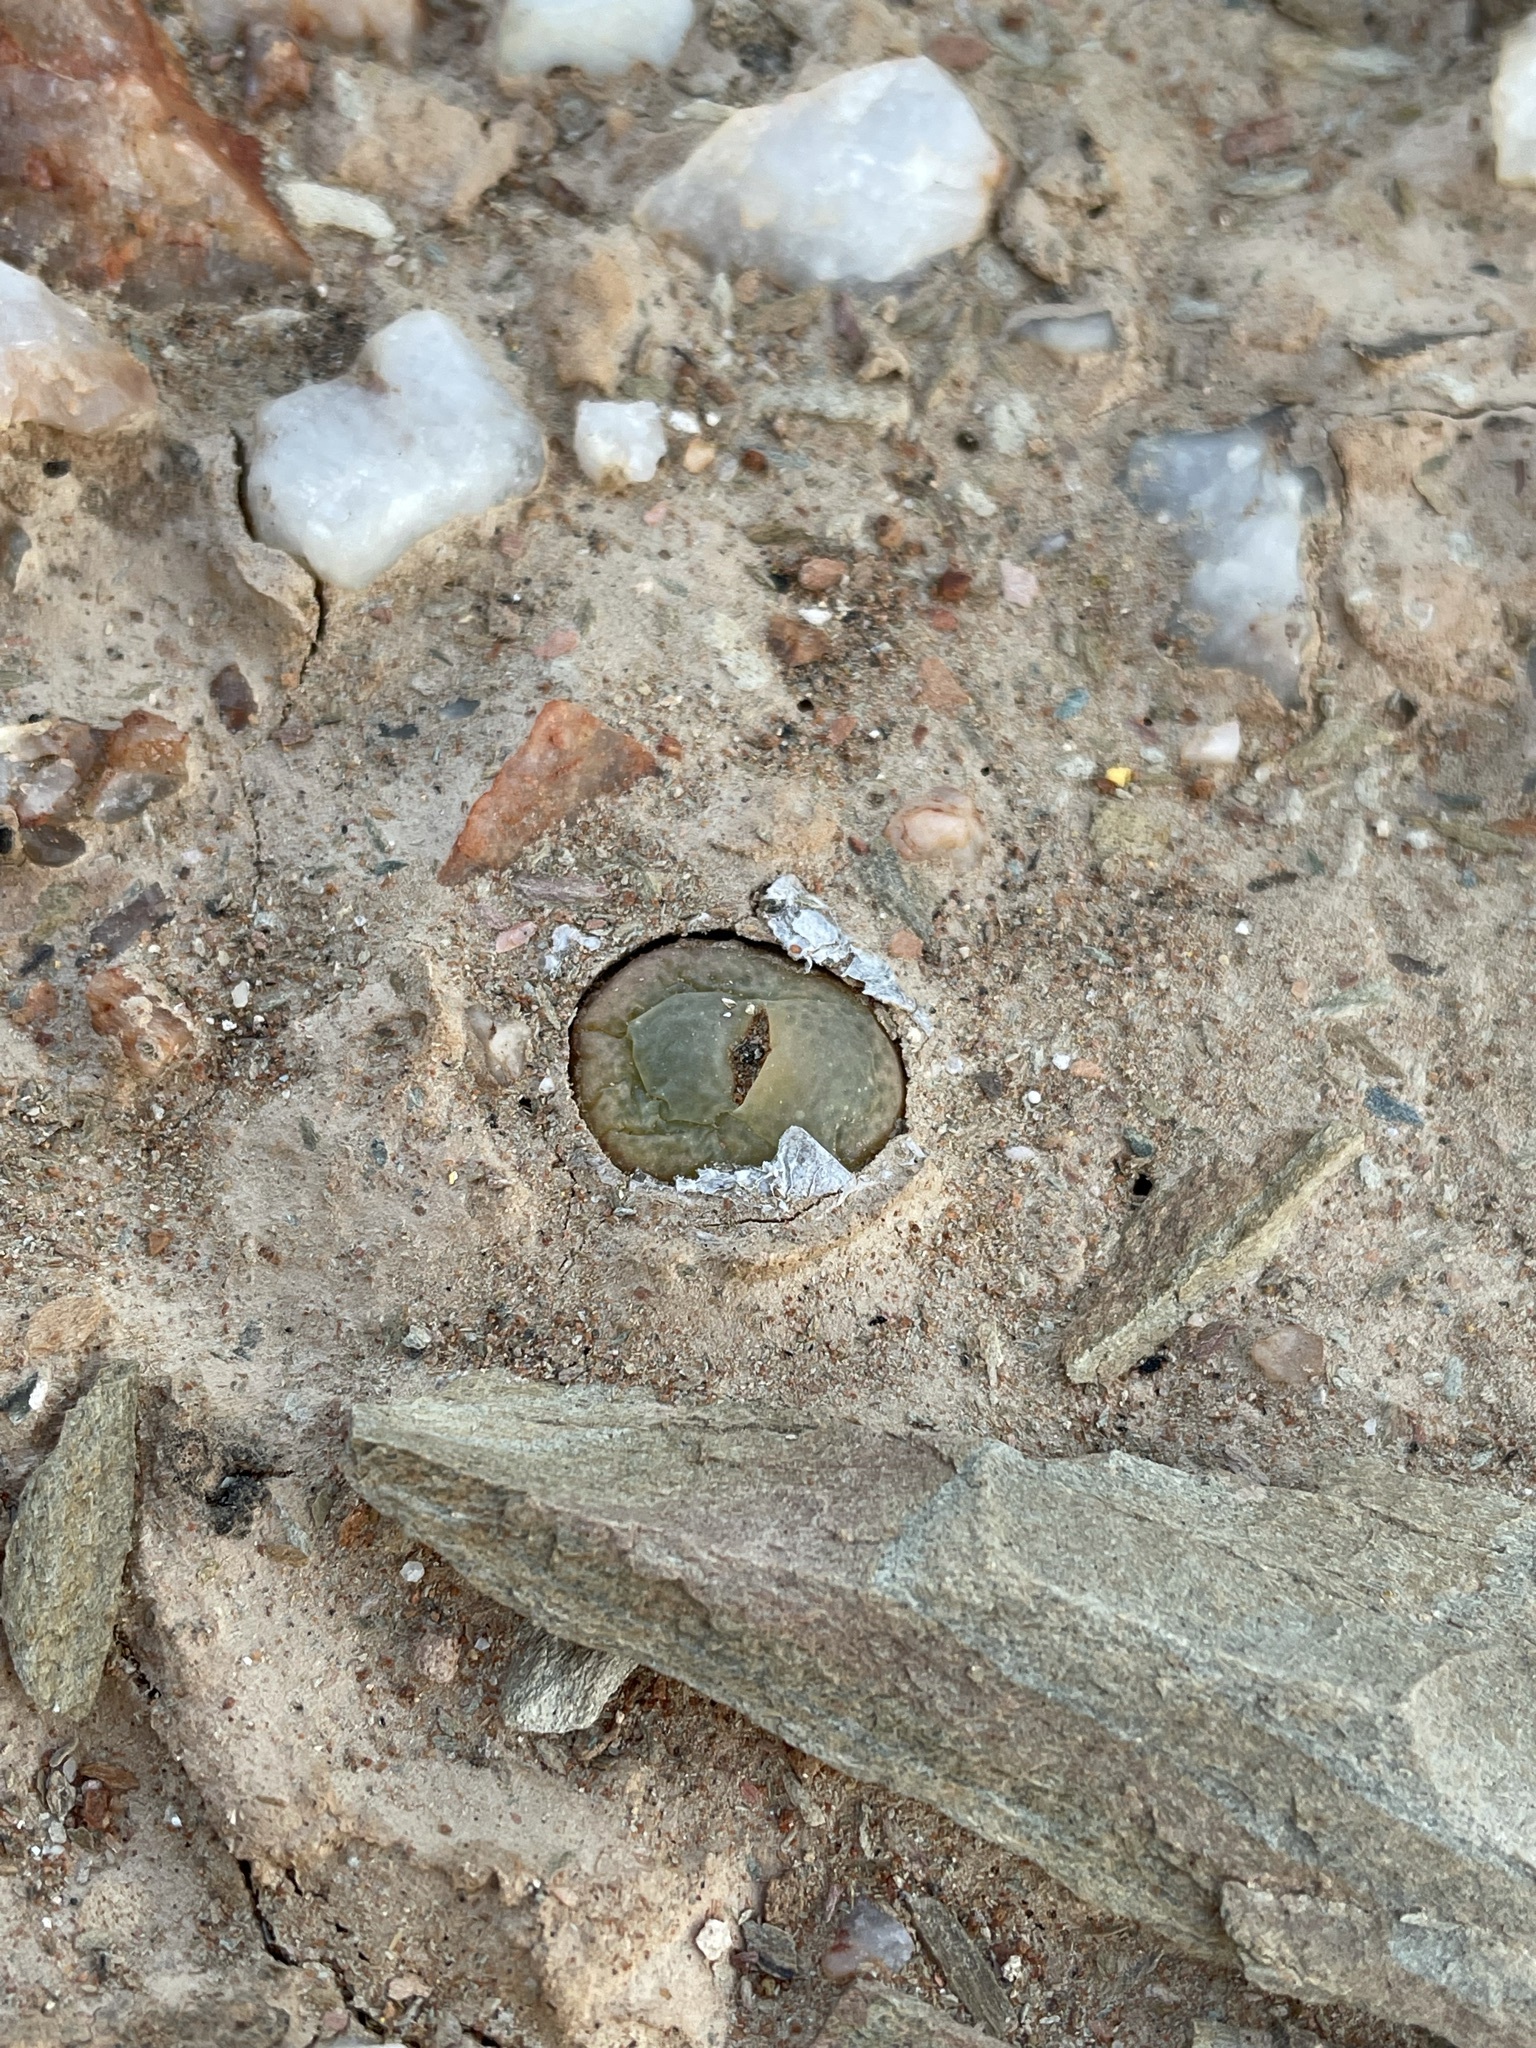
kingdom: Plantae
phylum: Tracheophyta
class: Magnoliopsida
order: Caryophyllales
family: Aizoaceae
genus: Conophytum
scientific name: Conophytum subfenestratum
